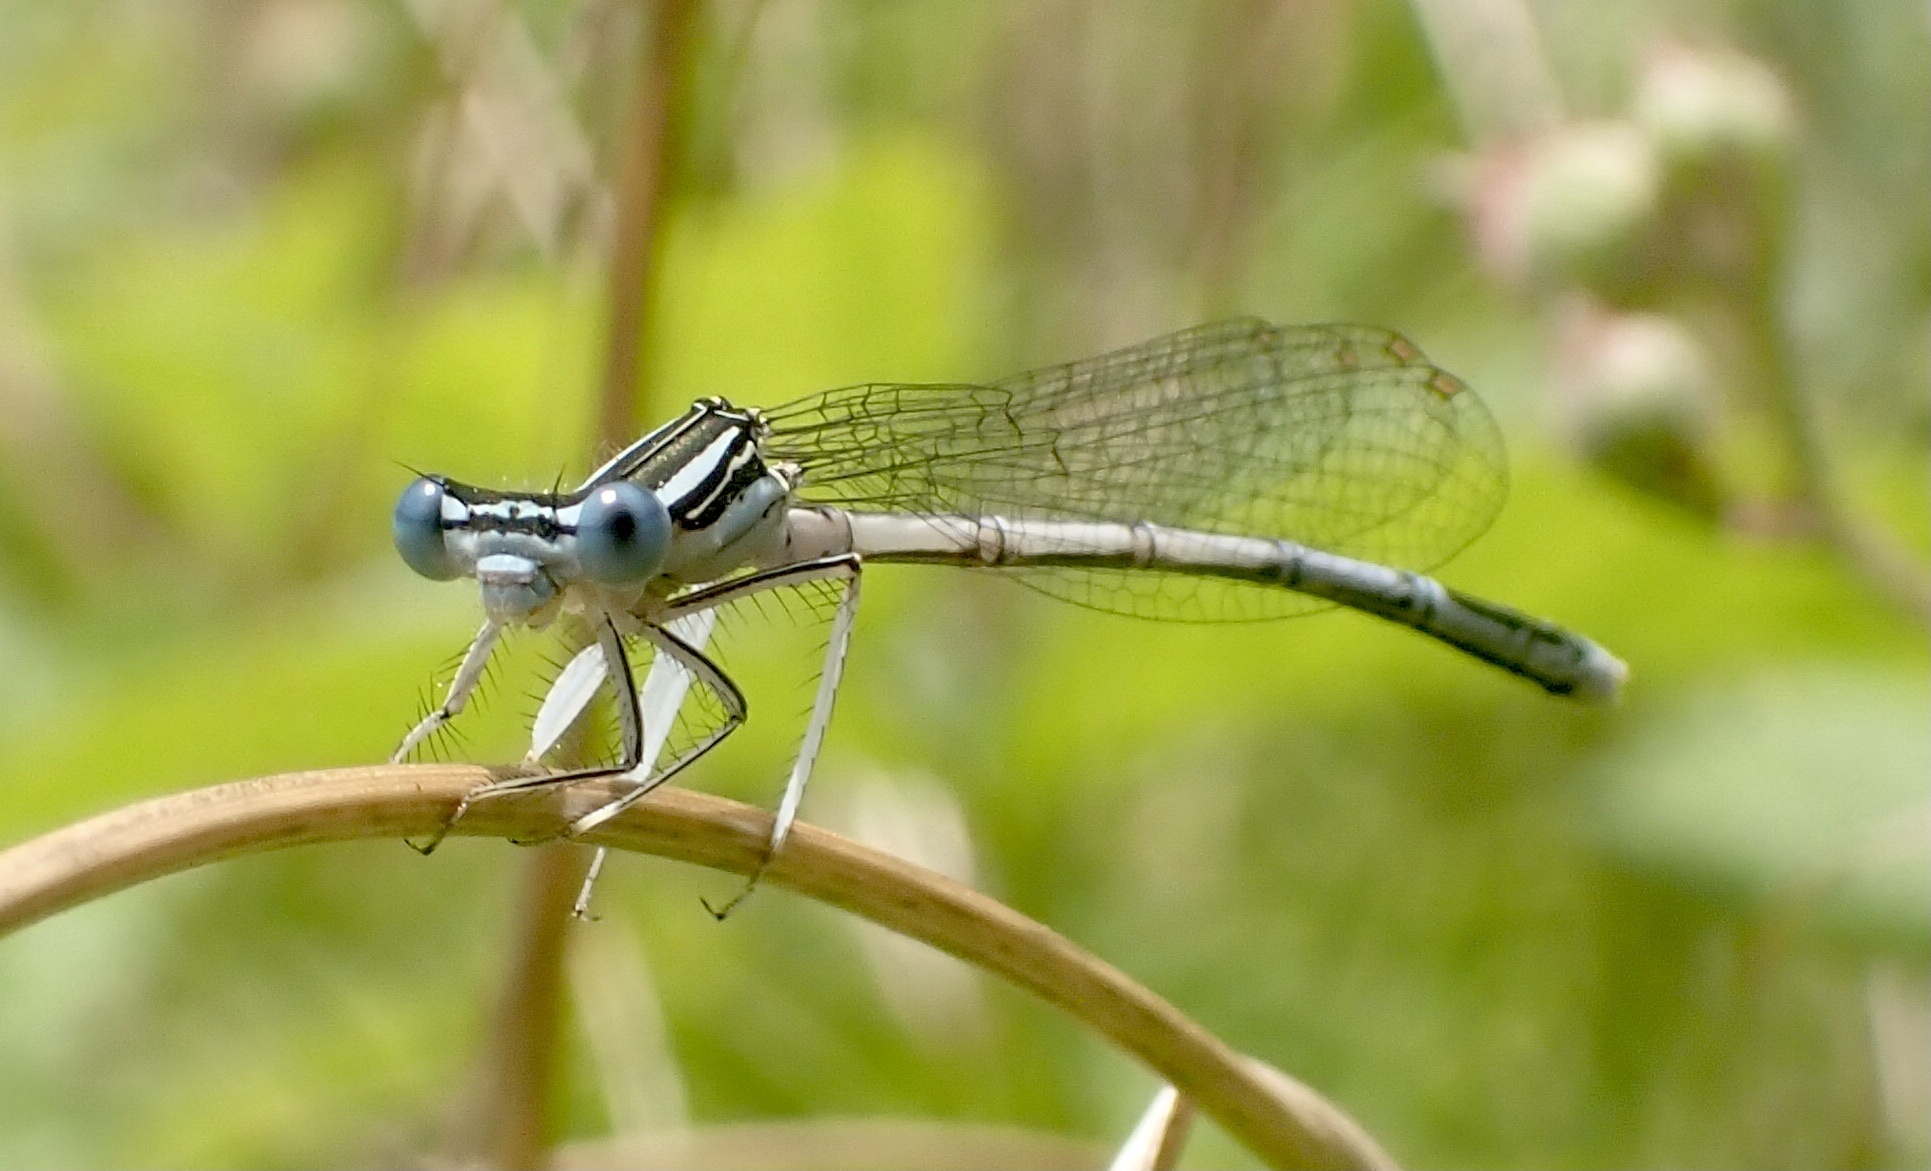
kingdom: Animalia
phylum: Arthropoda
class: Insecta
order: Odonata
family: Platycnemididae
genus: Platycnemis
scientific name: Platycnemis pennipes
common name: White-legged damselfly
